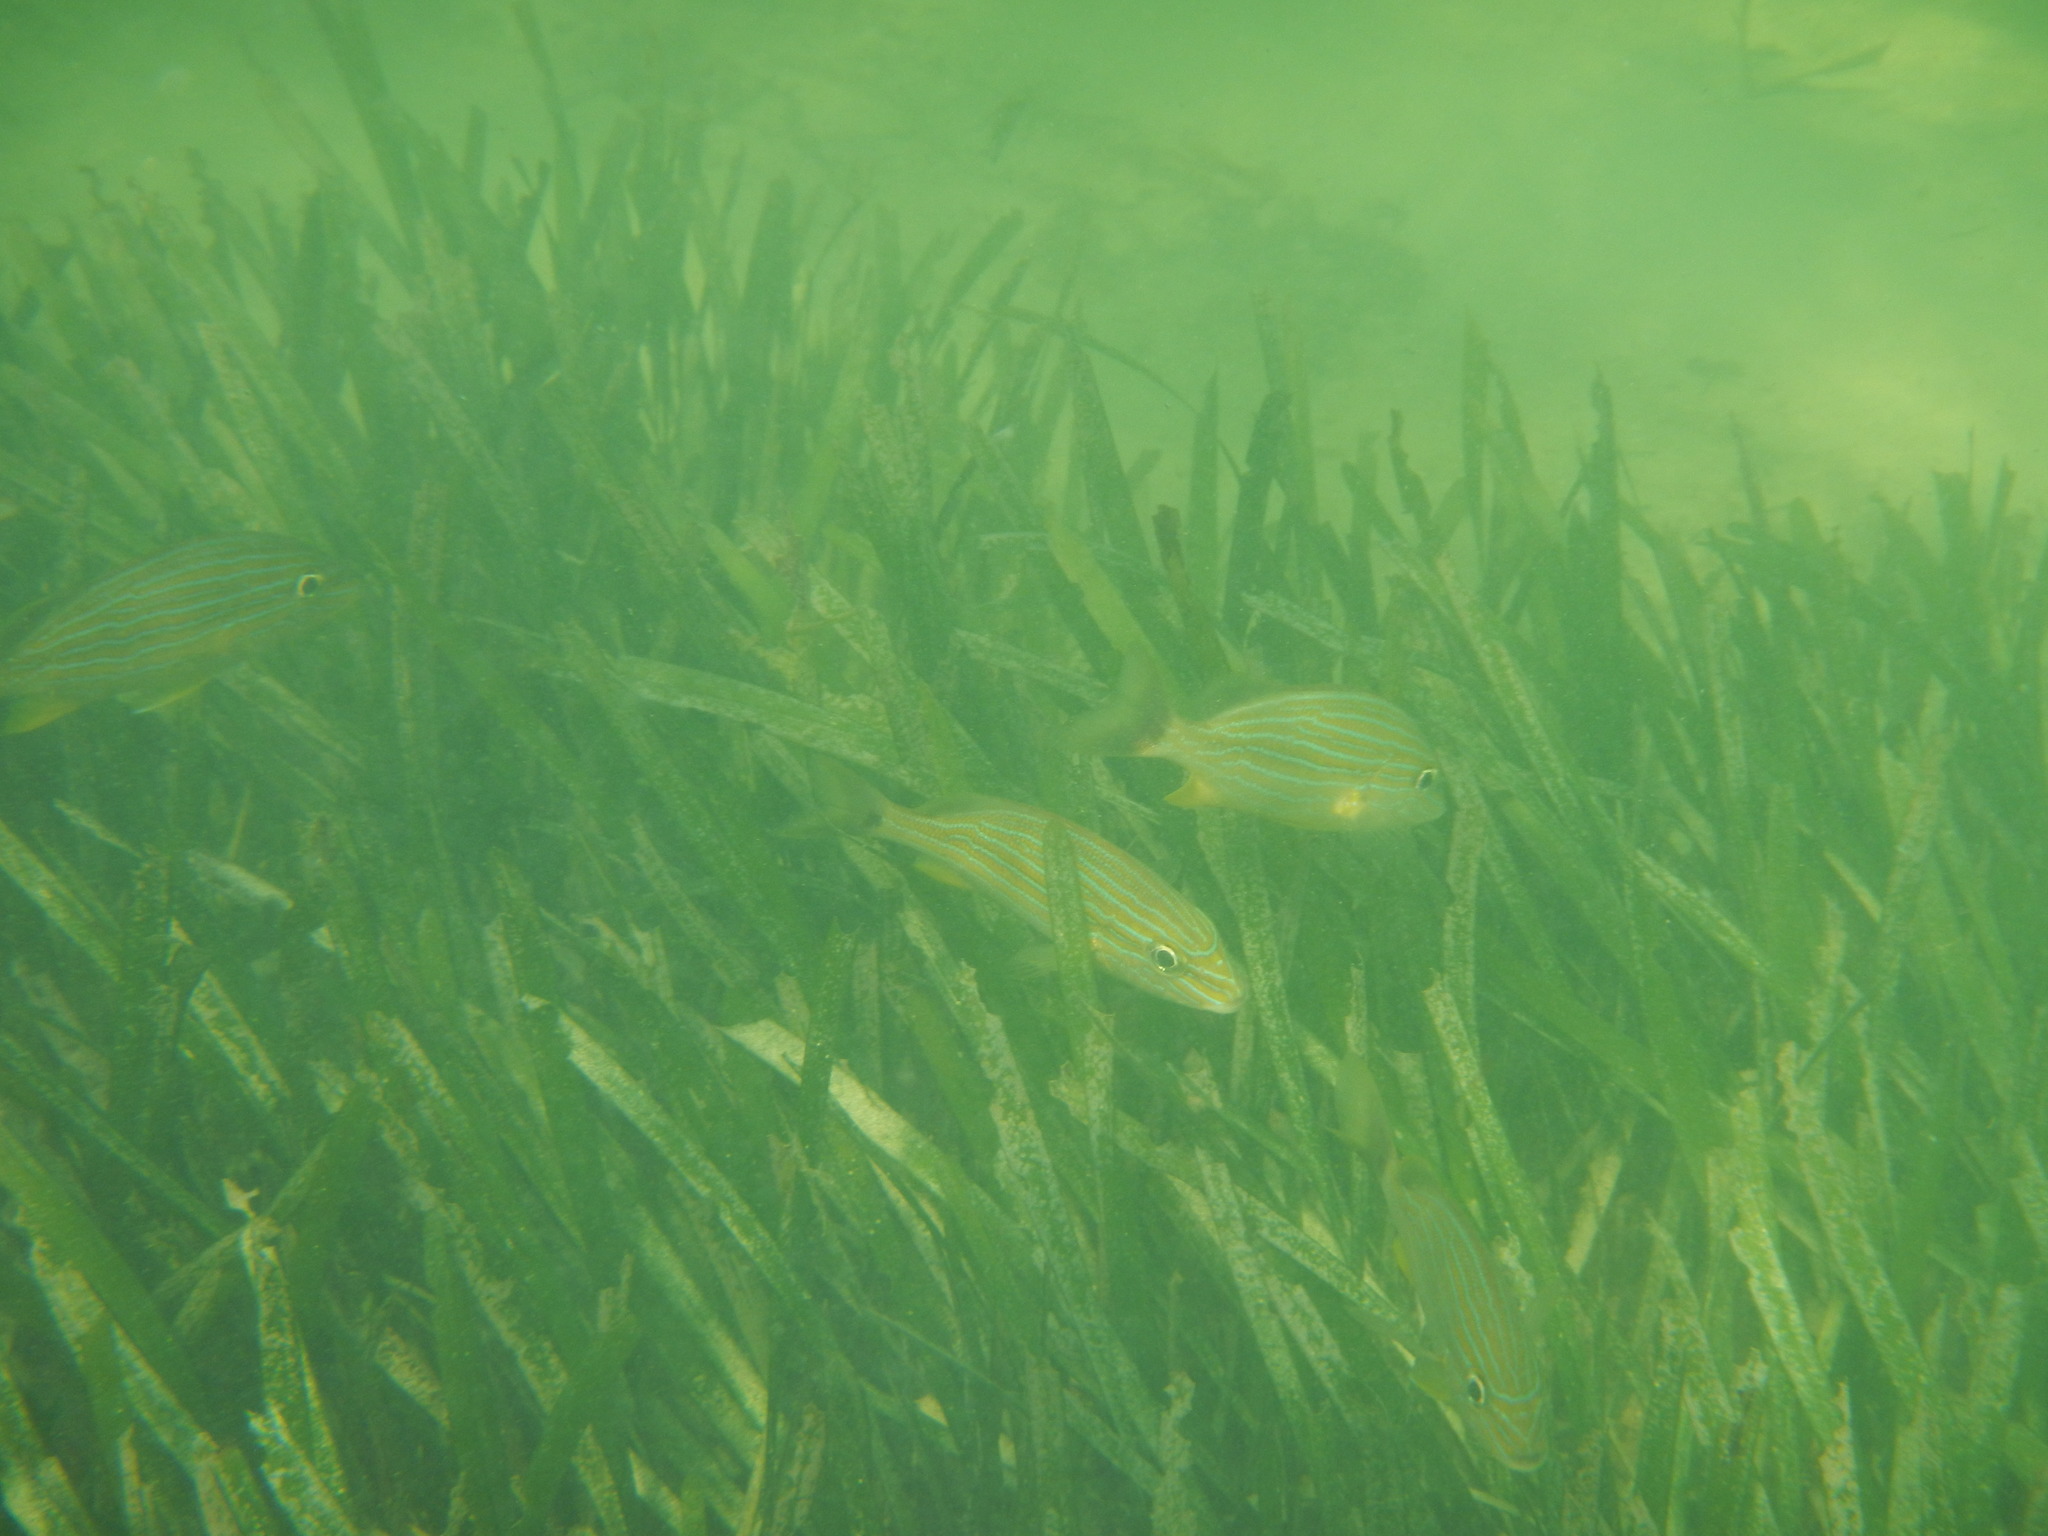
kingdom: Animalia
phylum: Chordata
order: Perciformes
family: Haemulidae
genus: Haemulon
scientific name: Haemulon sciurus
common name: Bluestriped grunt
